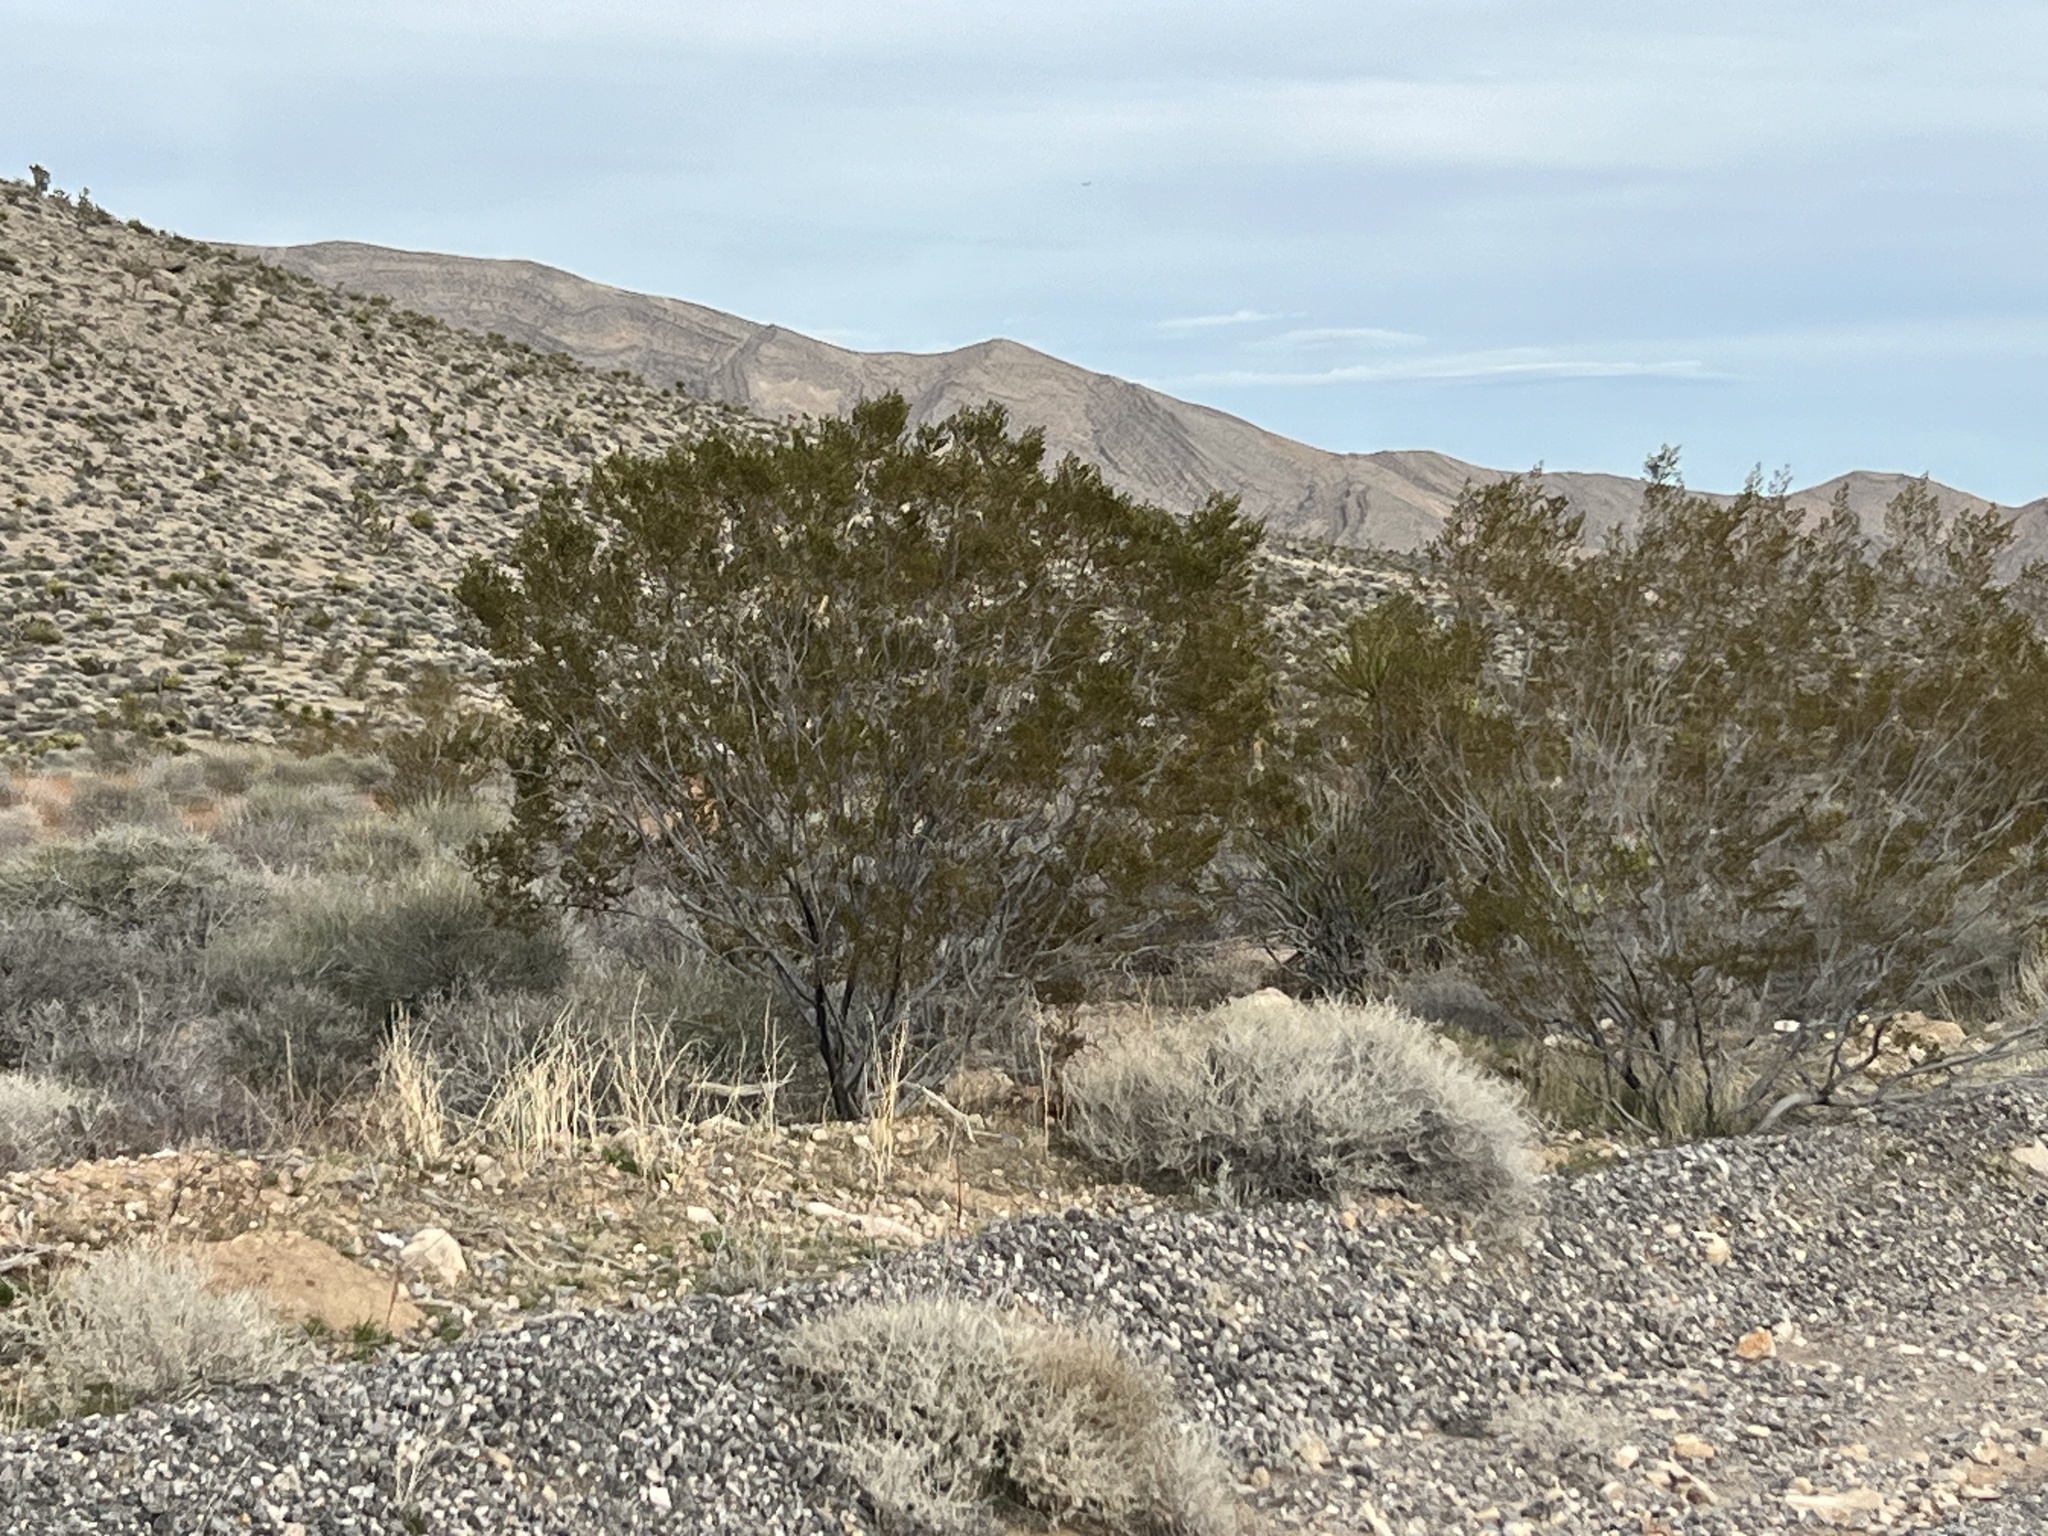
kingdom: Plantae
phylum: Tracheophyta
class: Magnoliopsida
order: Zygophyllales
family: Zygophyllaceae
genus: Larrea
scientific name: Larrea tridentata
